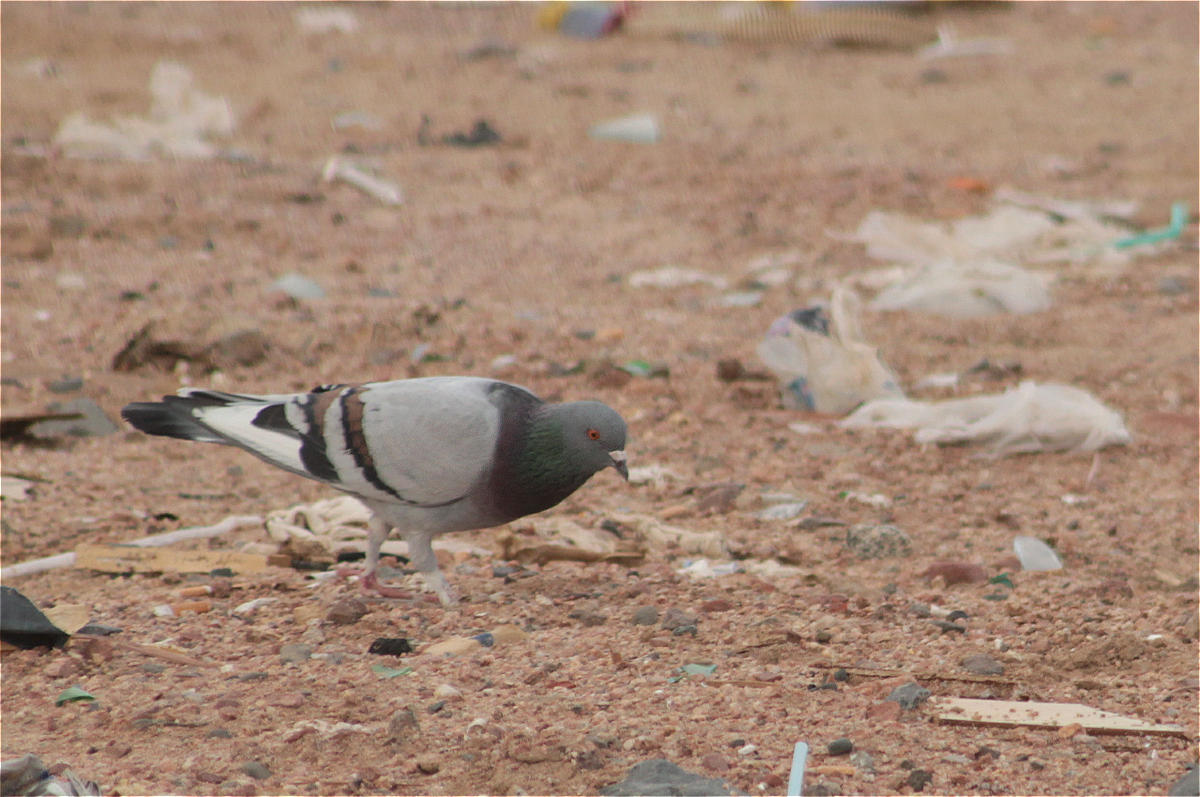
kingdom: Animalia
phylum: Chordata
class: Aves
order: Columbiformes
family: Columbidae
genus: Columba
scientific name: Columba livia
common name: Rock pigeon
